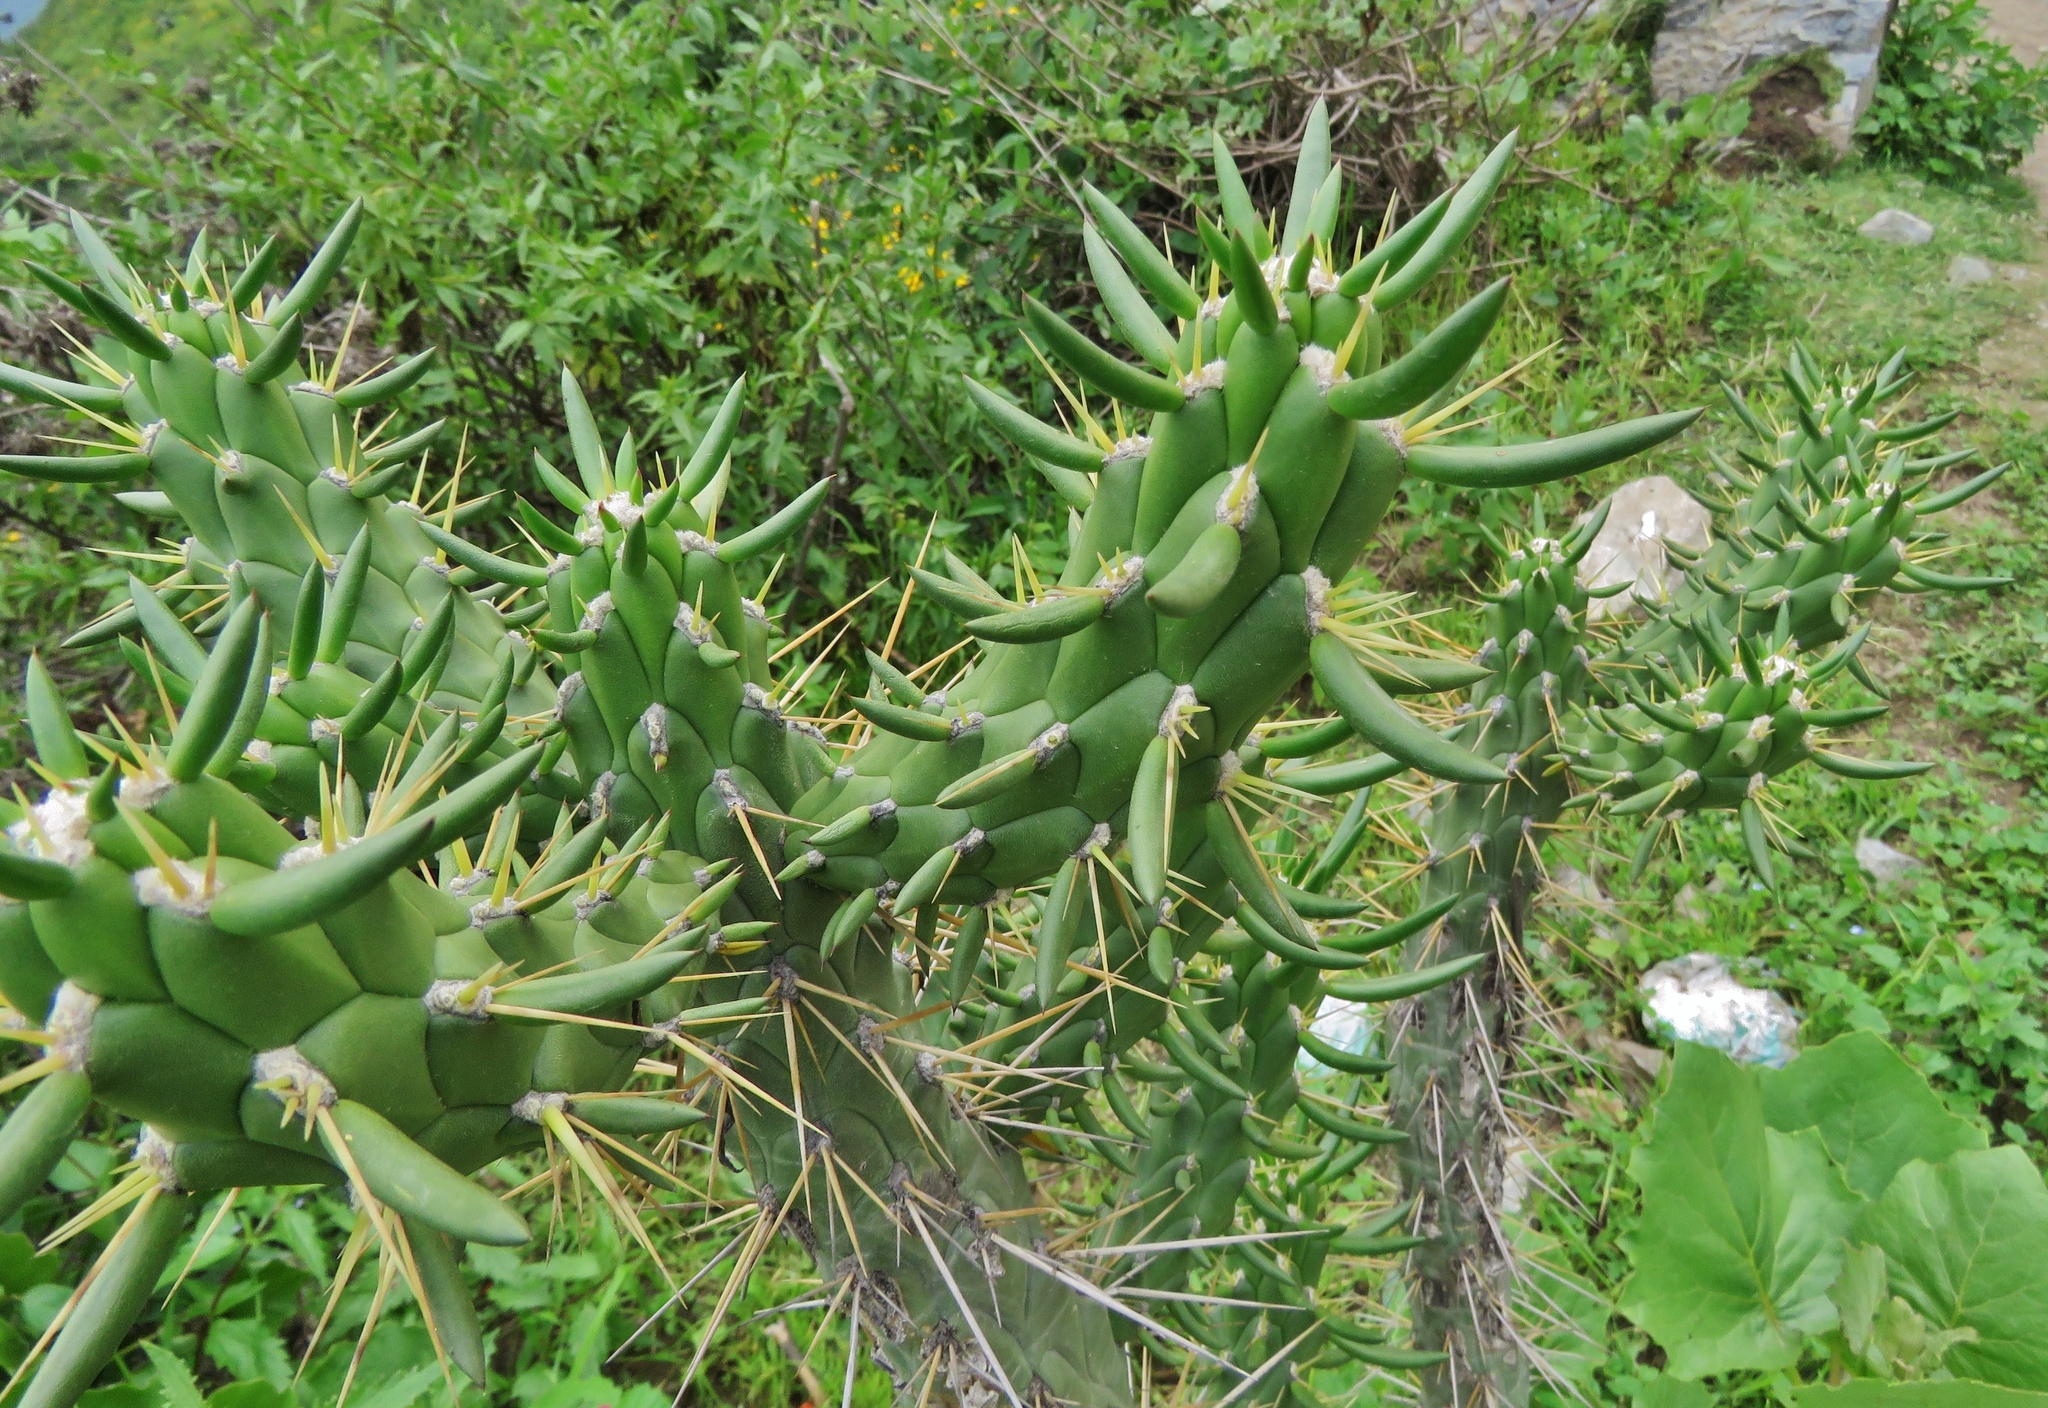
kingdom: Plantae
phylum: Tracheophyta
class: Magnoliopsida
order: Caryophyllales
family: Cactaceae
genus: Austrocylindropuntia
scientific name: Austrocylindropuntia subulata
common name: Eve's needle cactus
